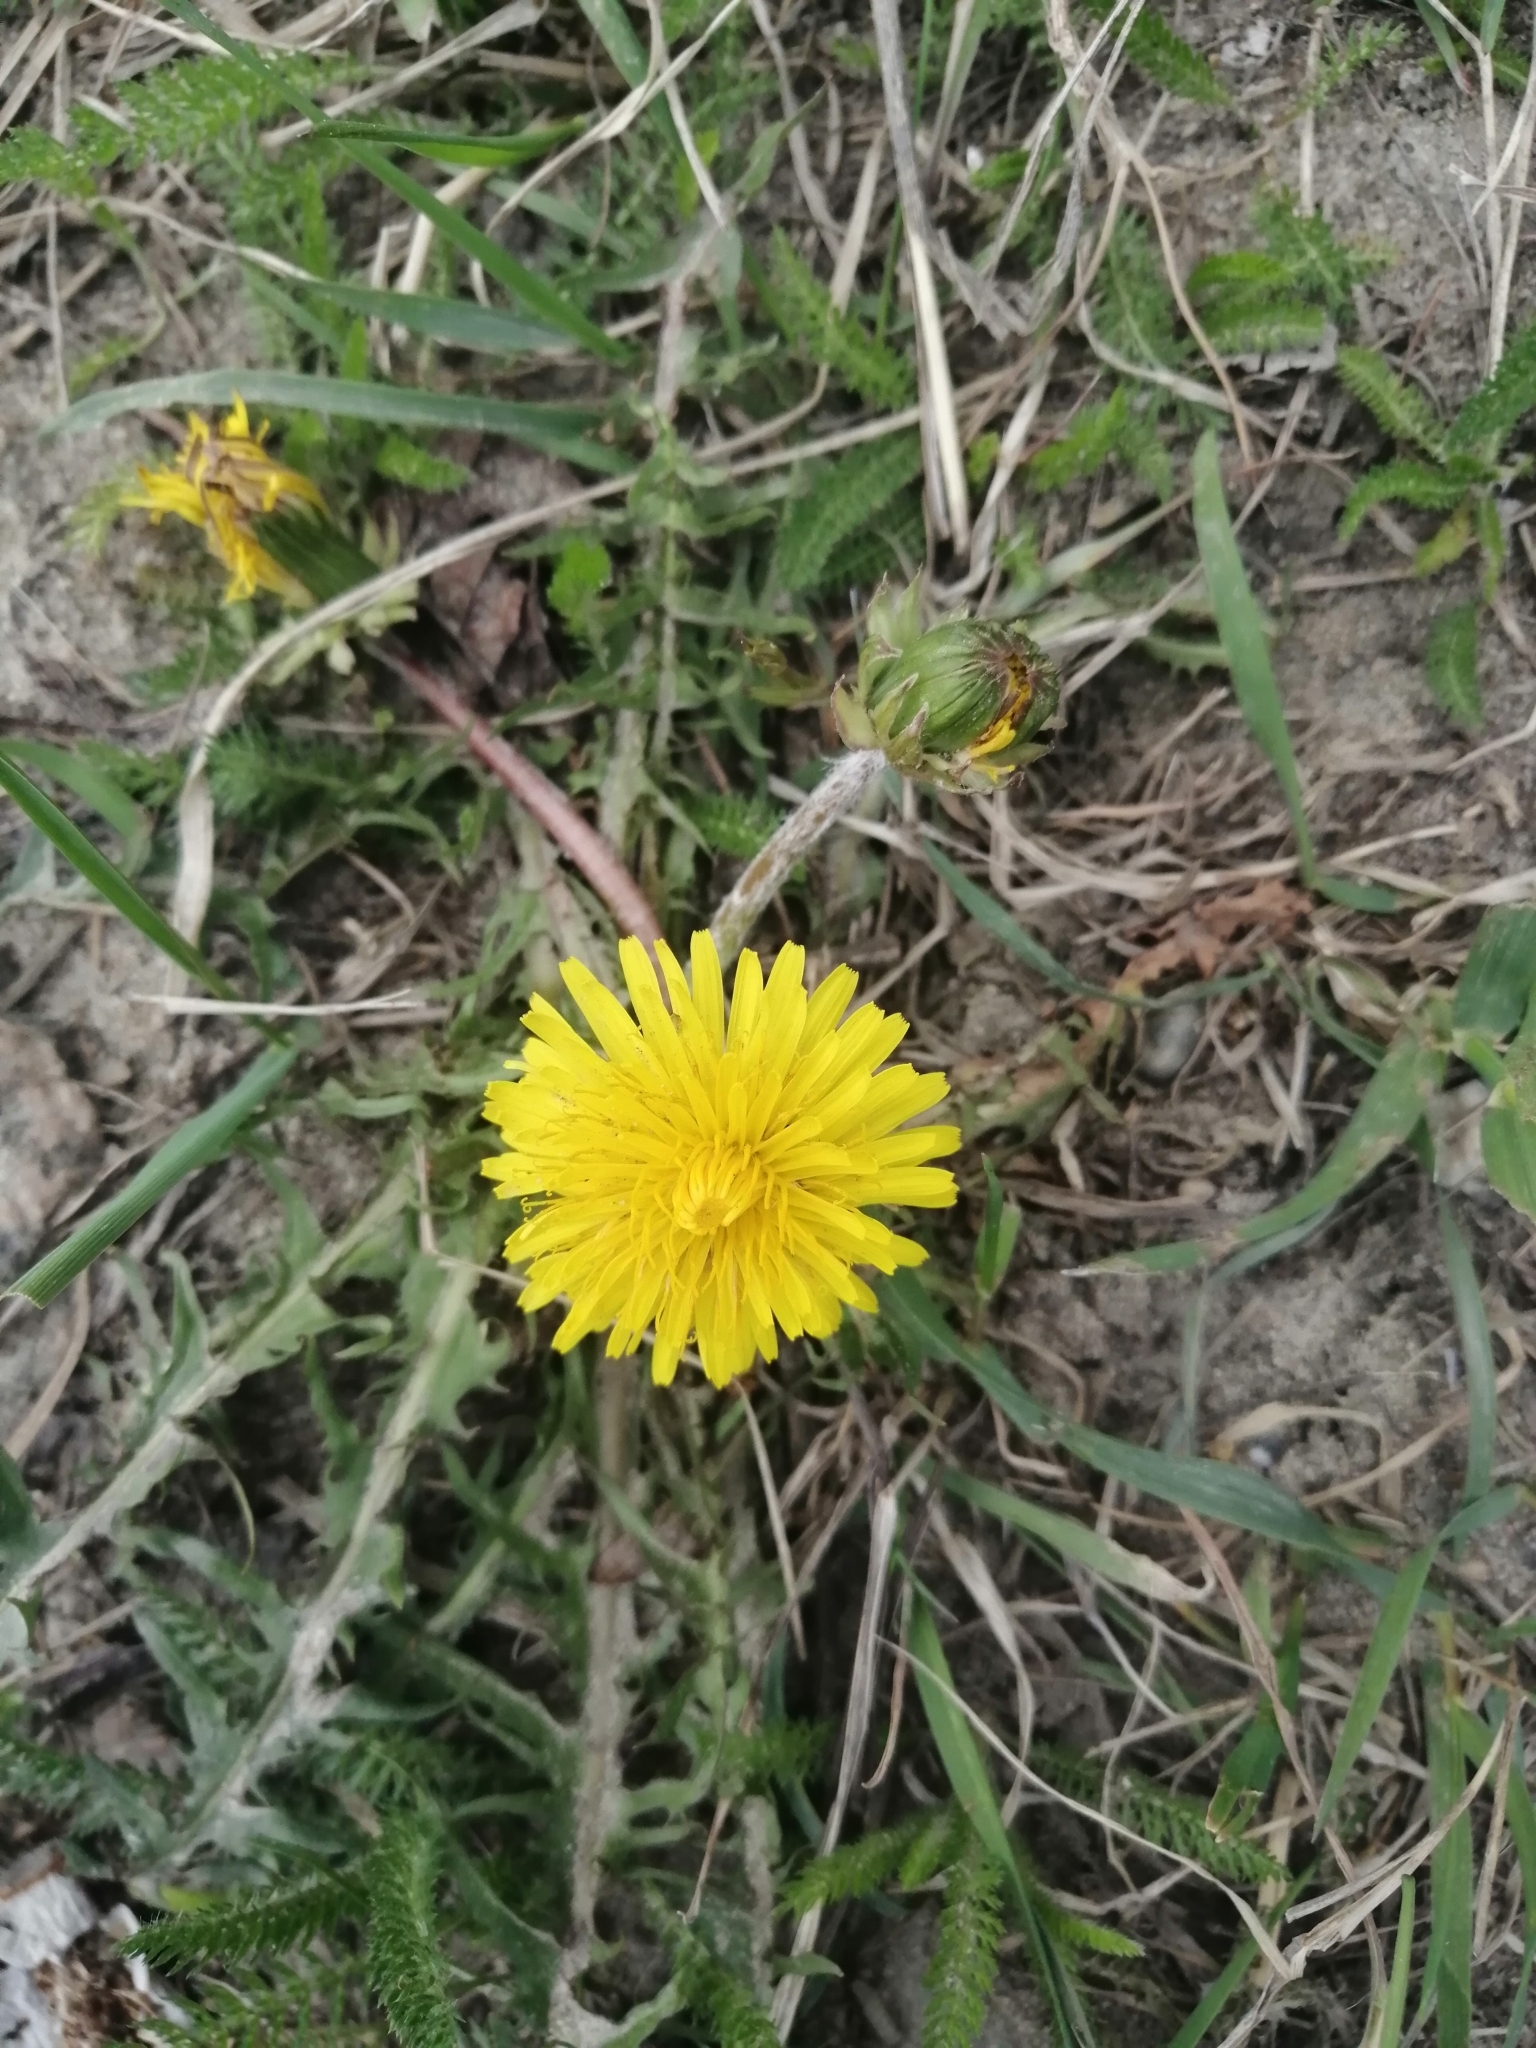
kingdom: Plantae
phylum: Tracheophyta
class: Magnoliopsida
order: Asterales
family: Asteraceae
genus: Taraxacum
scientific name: Taraxacum officinale
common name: Common dandelion
